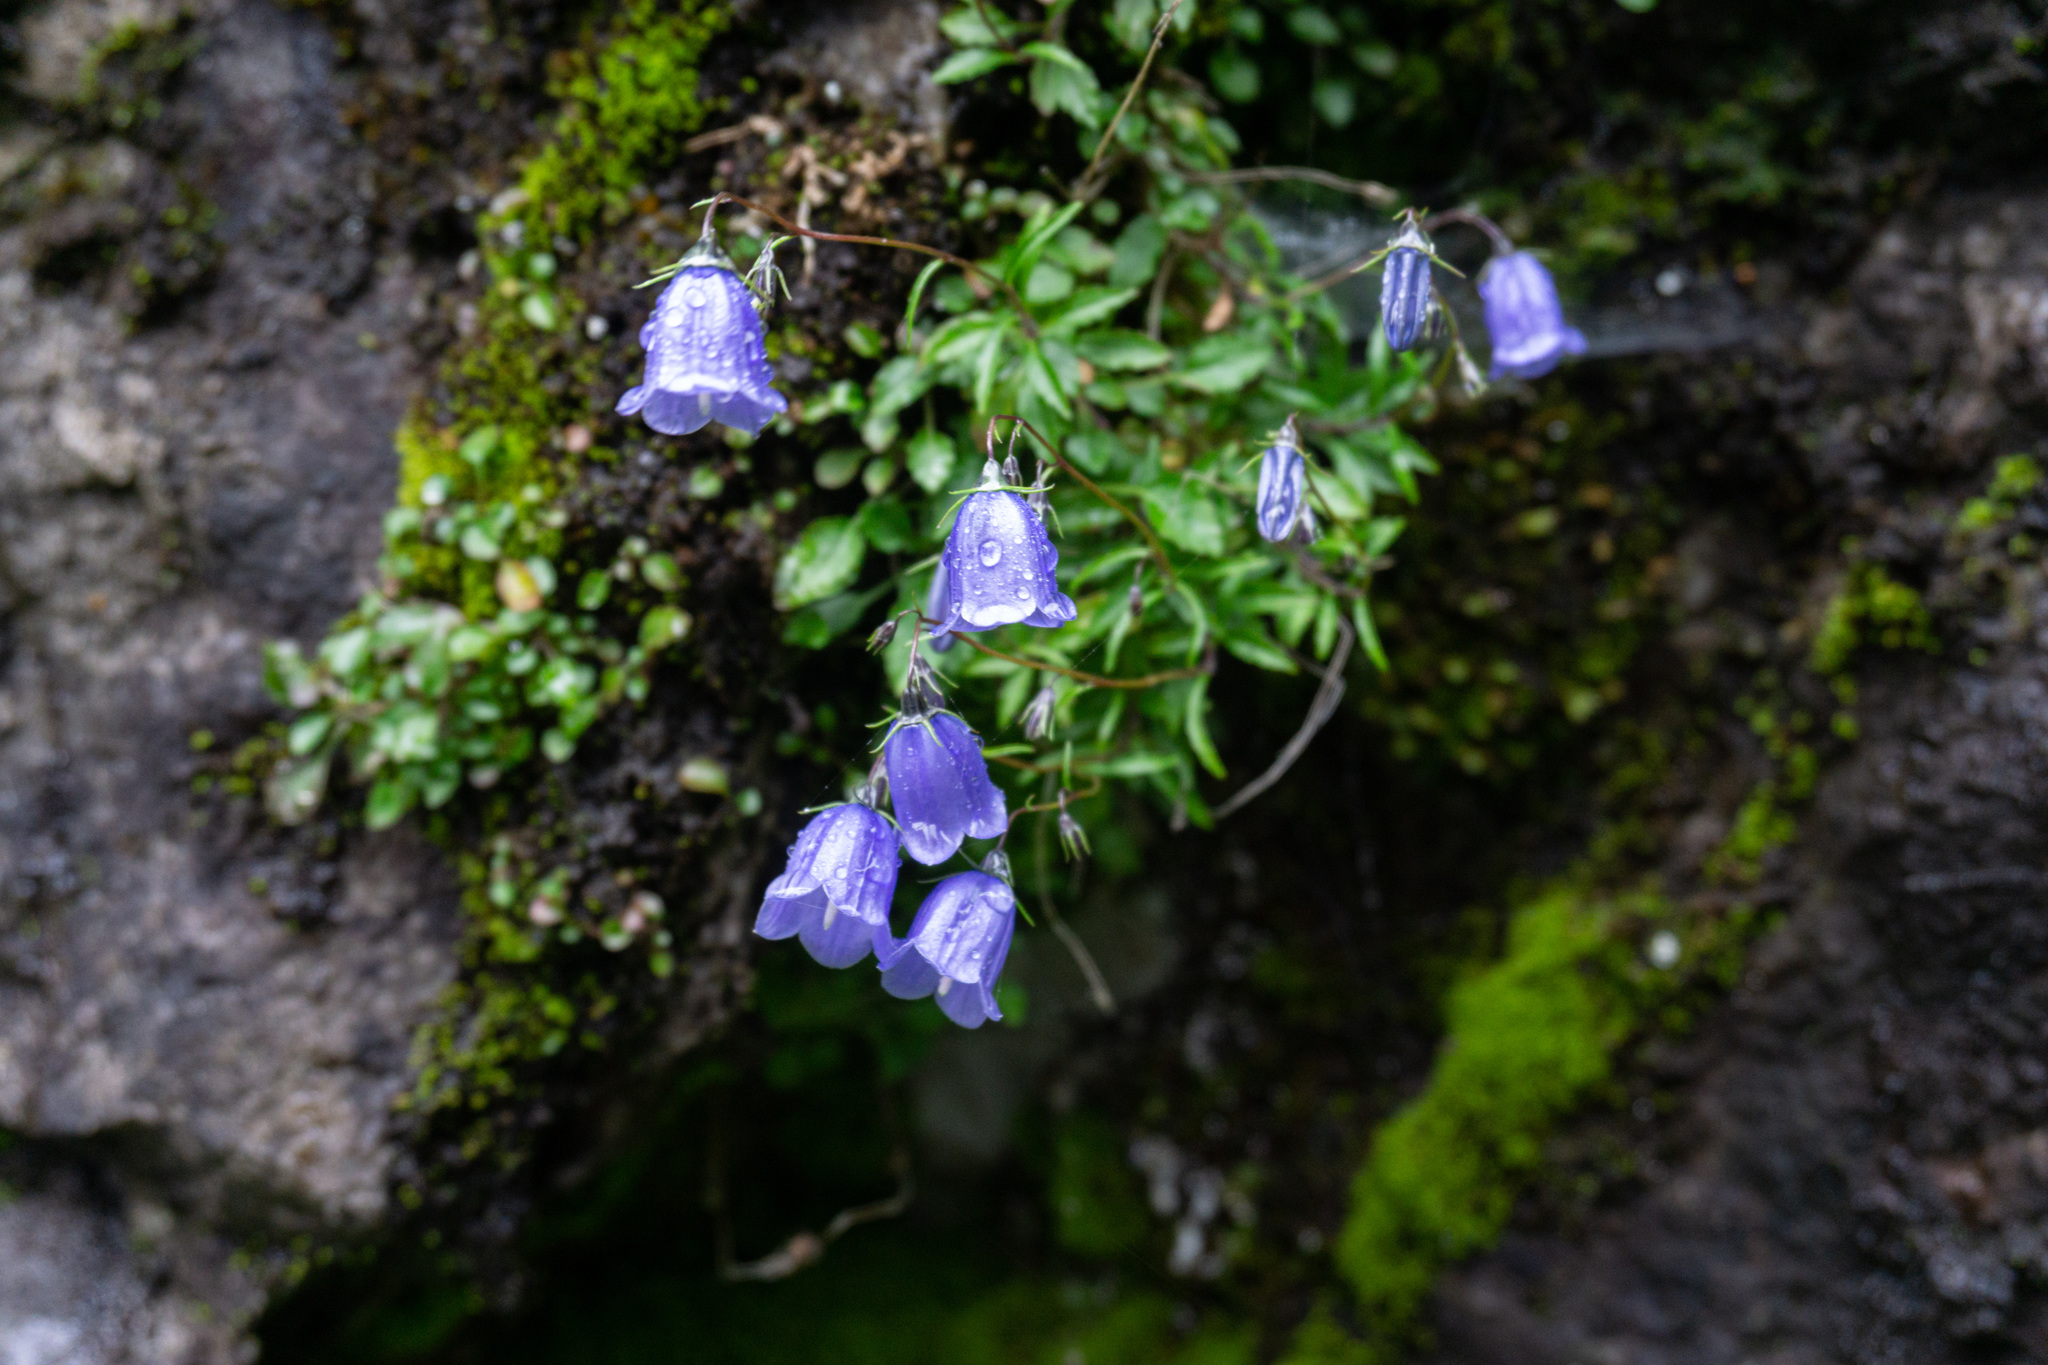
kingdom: Plantae
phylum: Tracheophyta
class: Magnoliopsida
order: Asterales
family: Campanulaceae
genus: Campanula
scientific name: Campanula cochleariifolia
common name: Fairies'-thimbles
